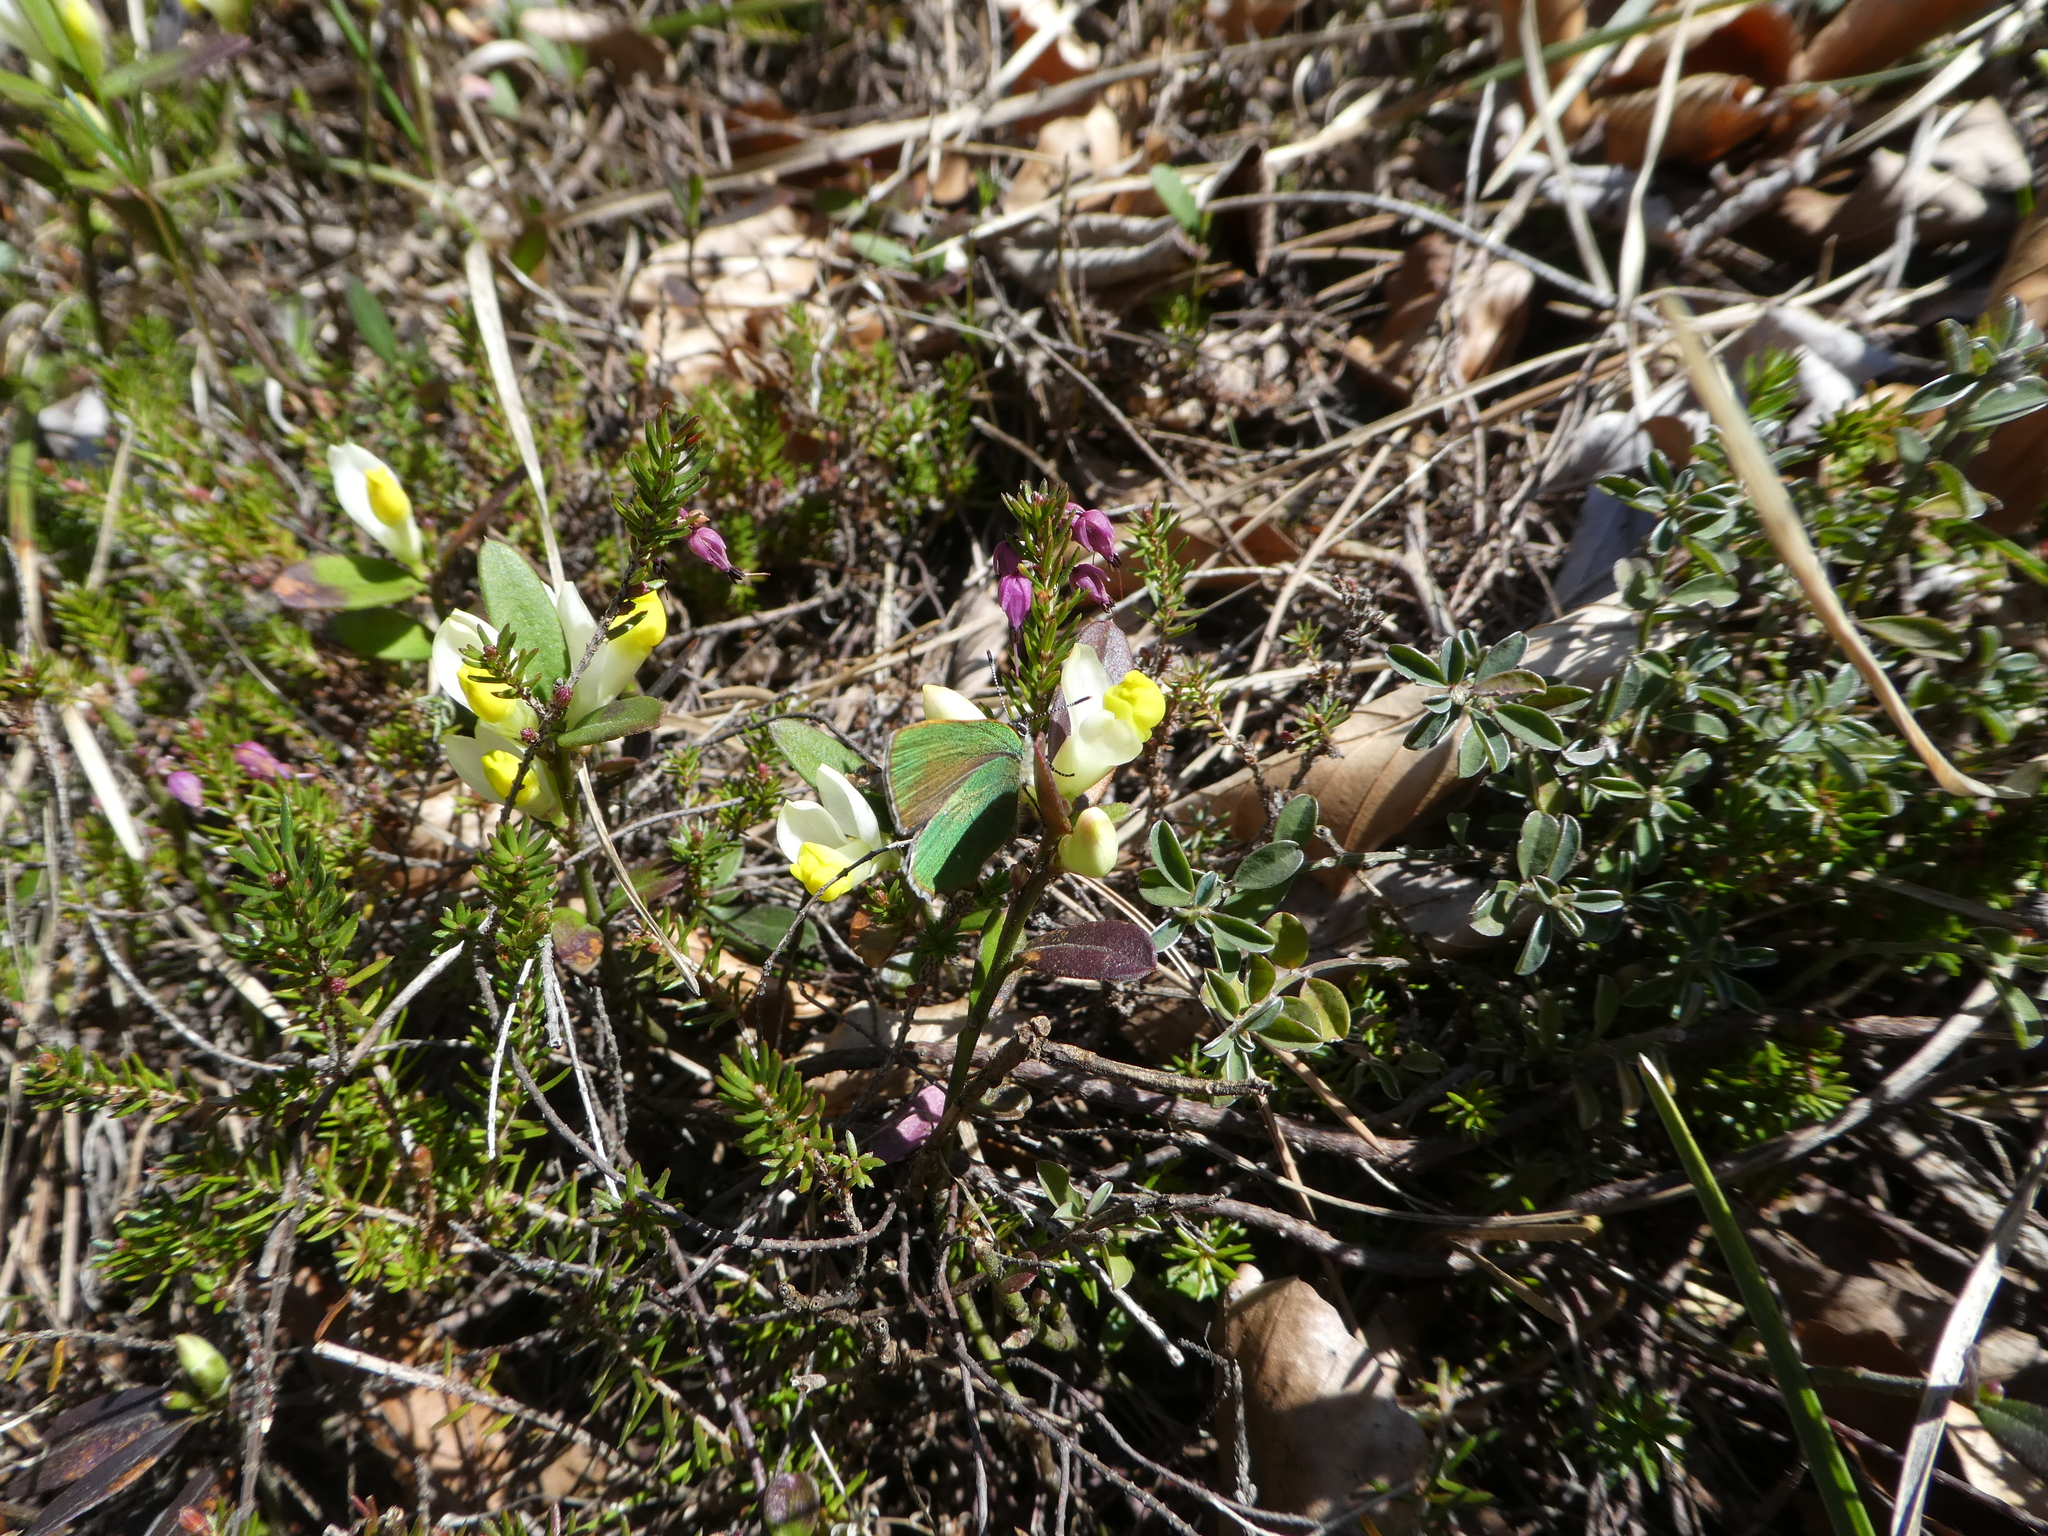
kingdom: Plantae
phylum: Tracheophyta
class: Magnoliopsida
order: Fabales
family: Polygalaceae
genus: Polygaloides
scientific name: Polygaloides chamaebuxus
